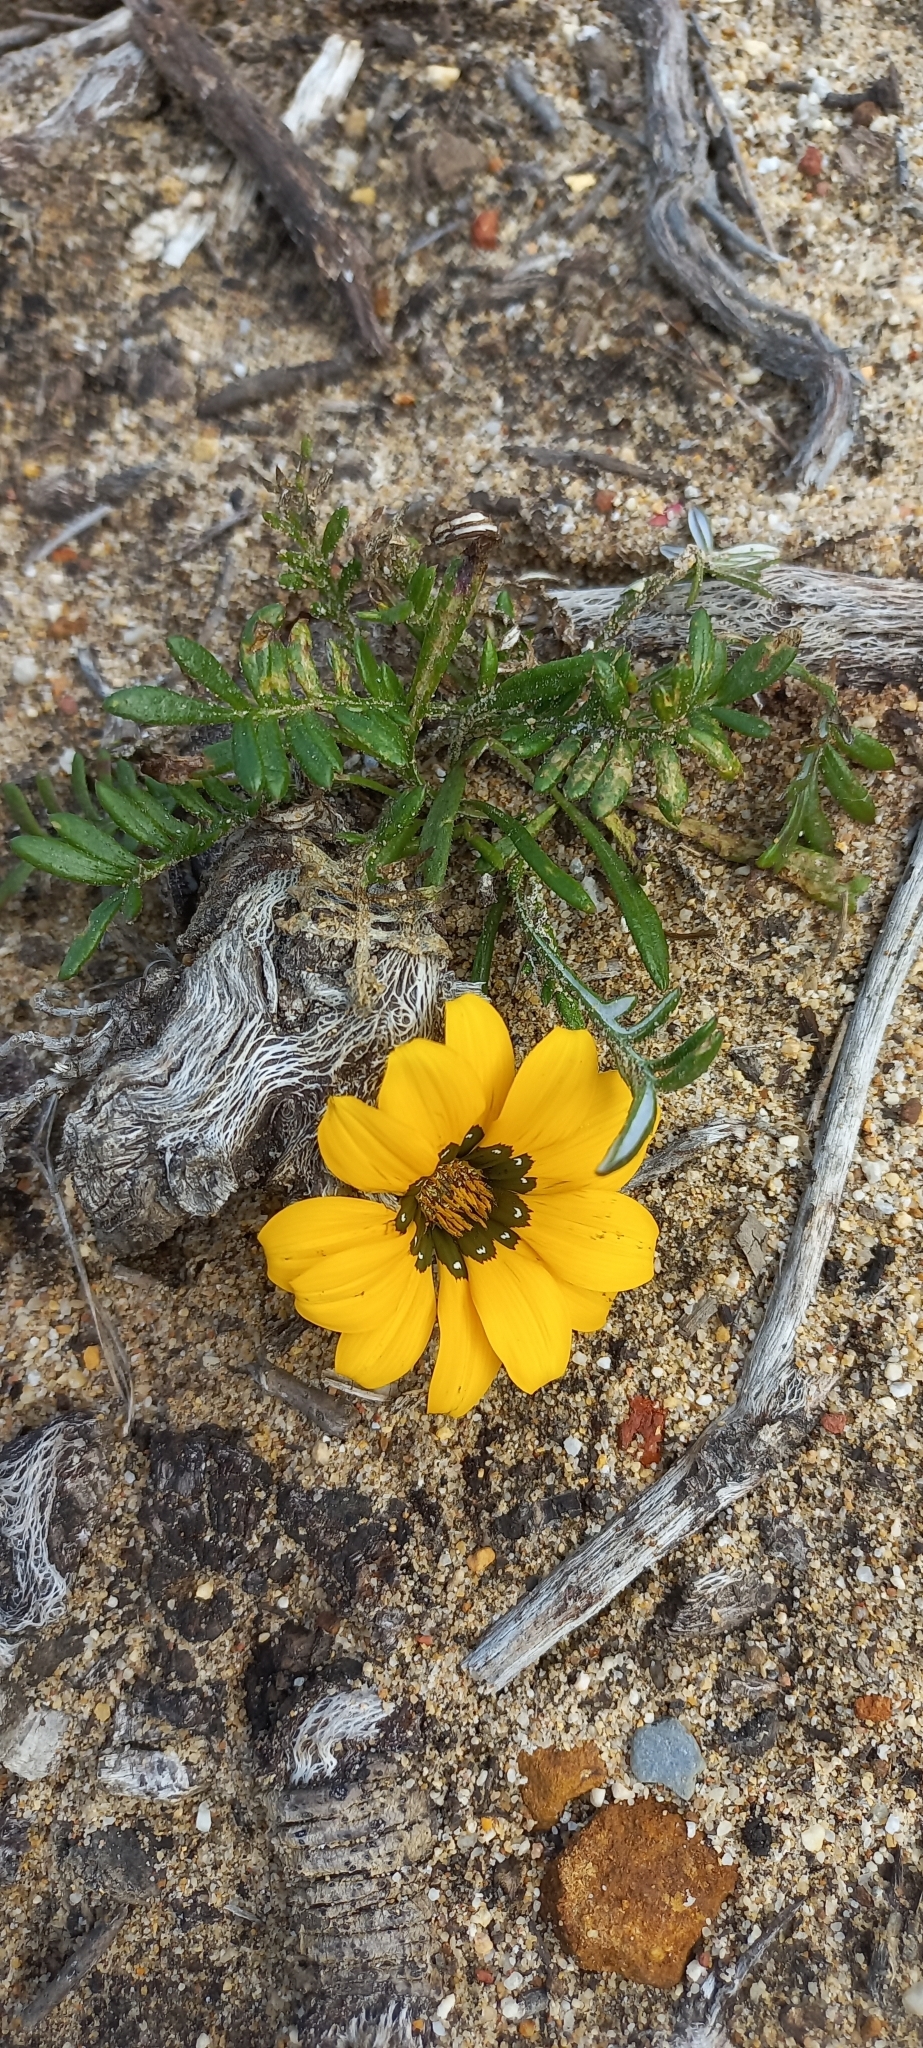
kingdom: Plantae
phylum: Tracheophyta
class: Magnoliopsida
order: Asterales
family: Asteraceae
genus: Gazania
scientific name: Gazania pectinata
